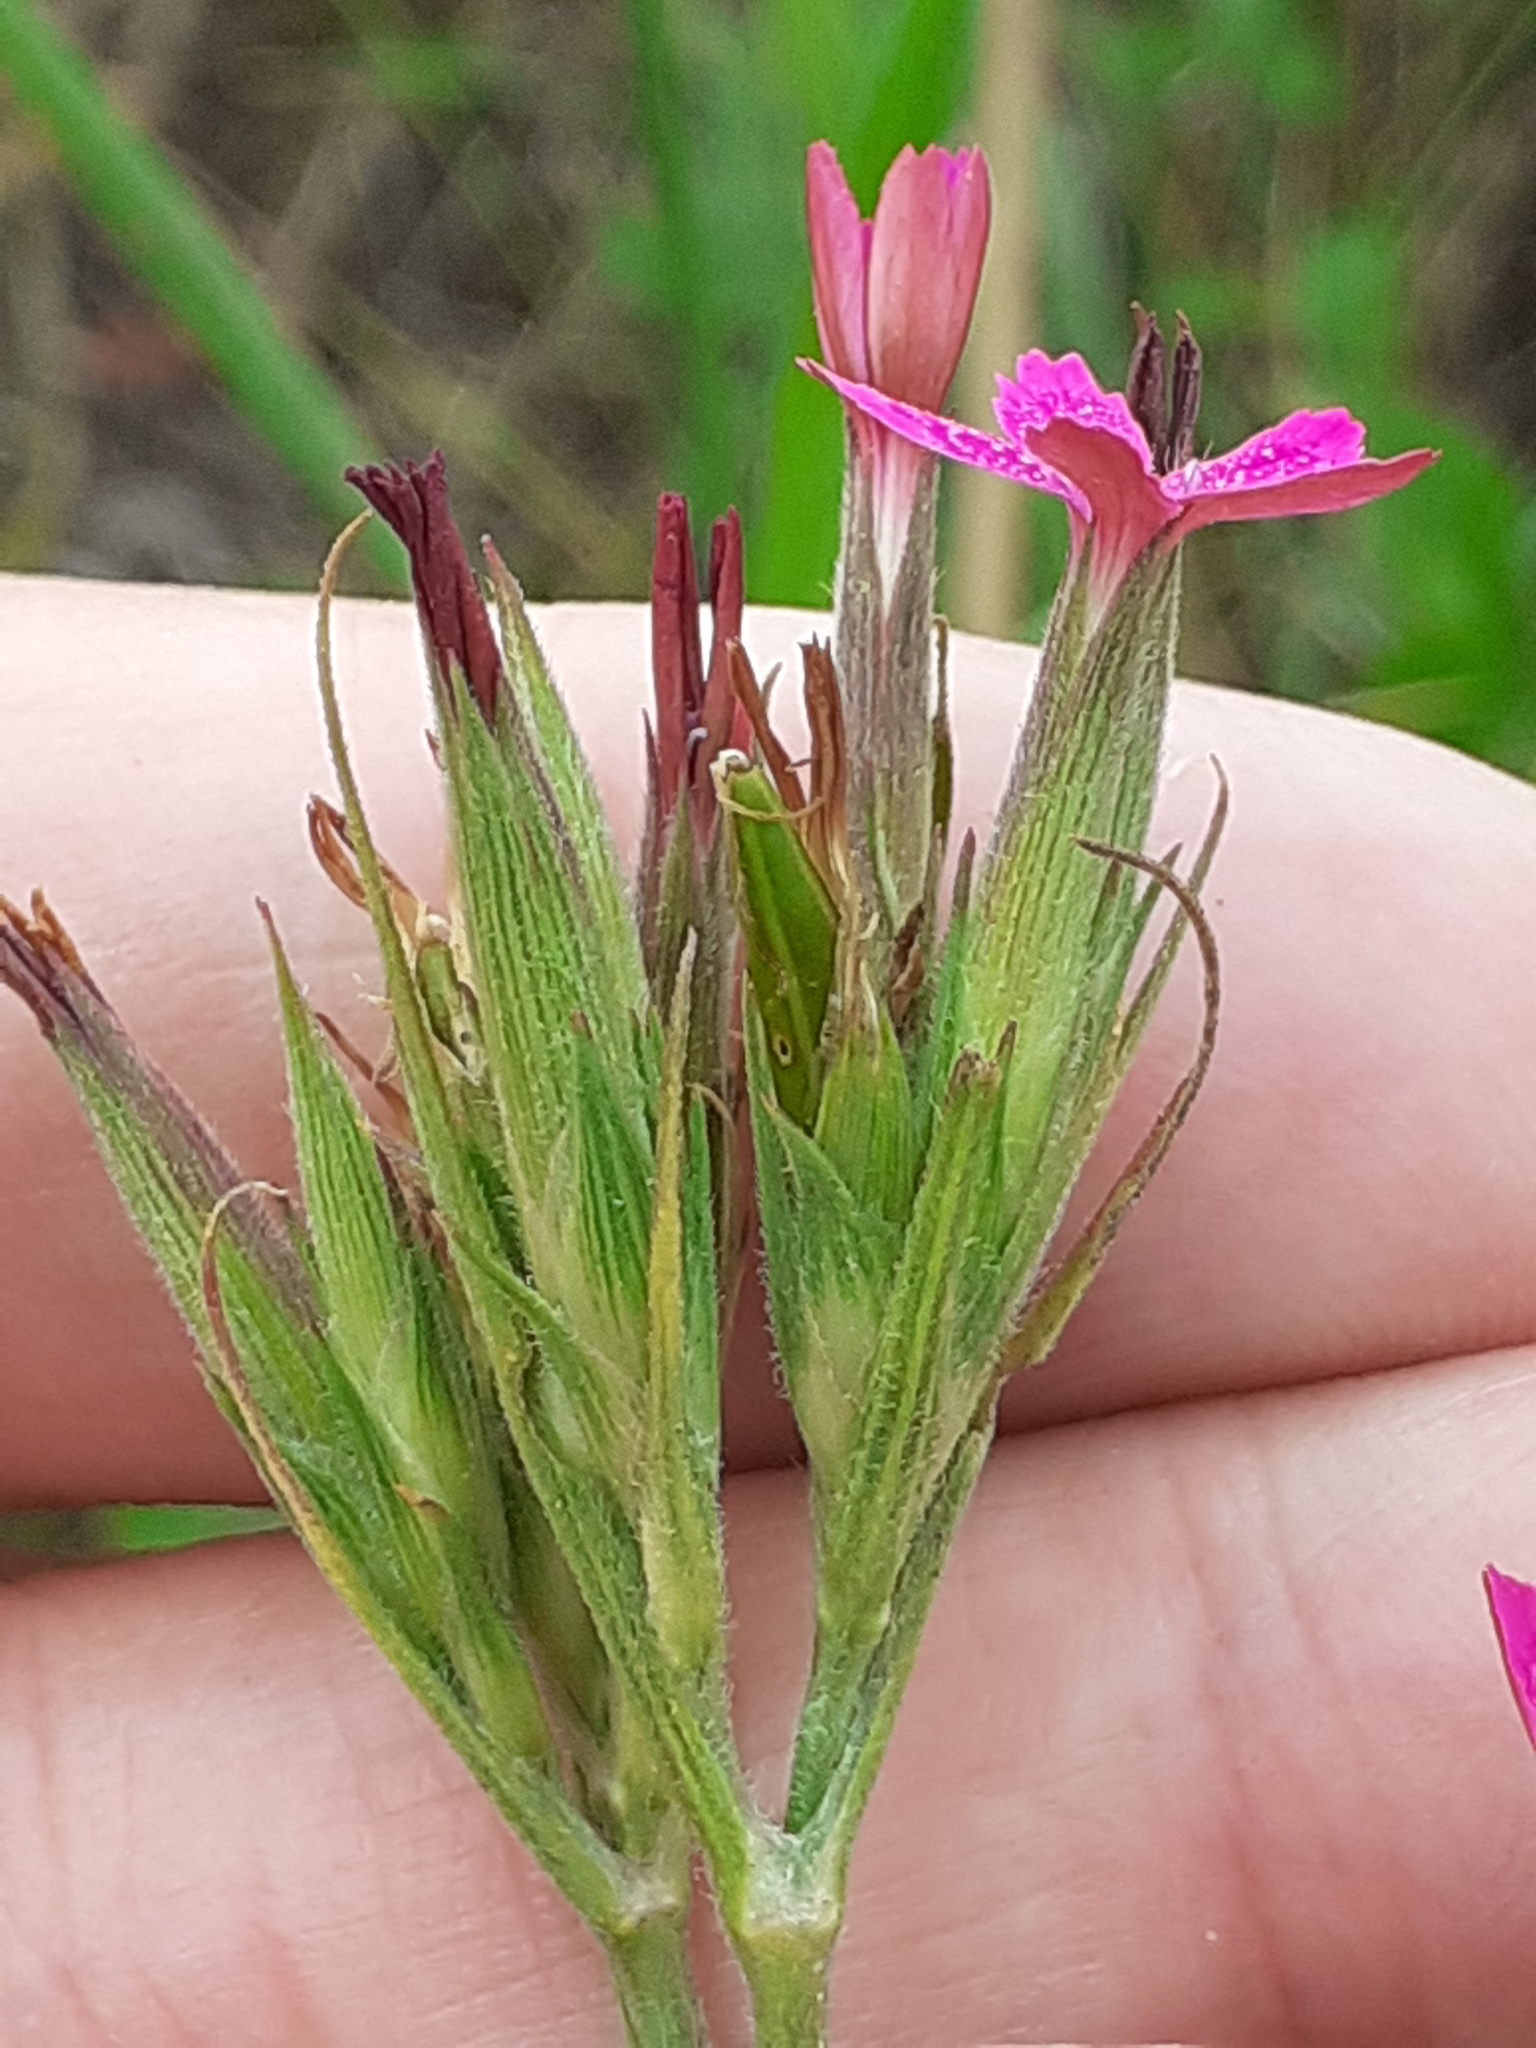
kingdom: Plantae
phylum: Tracheophyta
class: Magnoliopsida
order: Caryophyllales
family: Caryophyllaceae
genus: Dianthus
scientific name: Dianthus armeria
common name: Deptford pink
